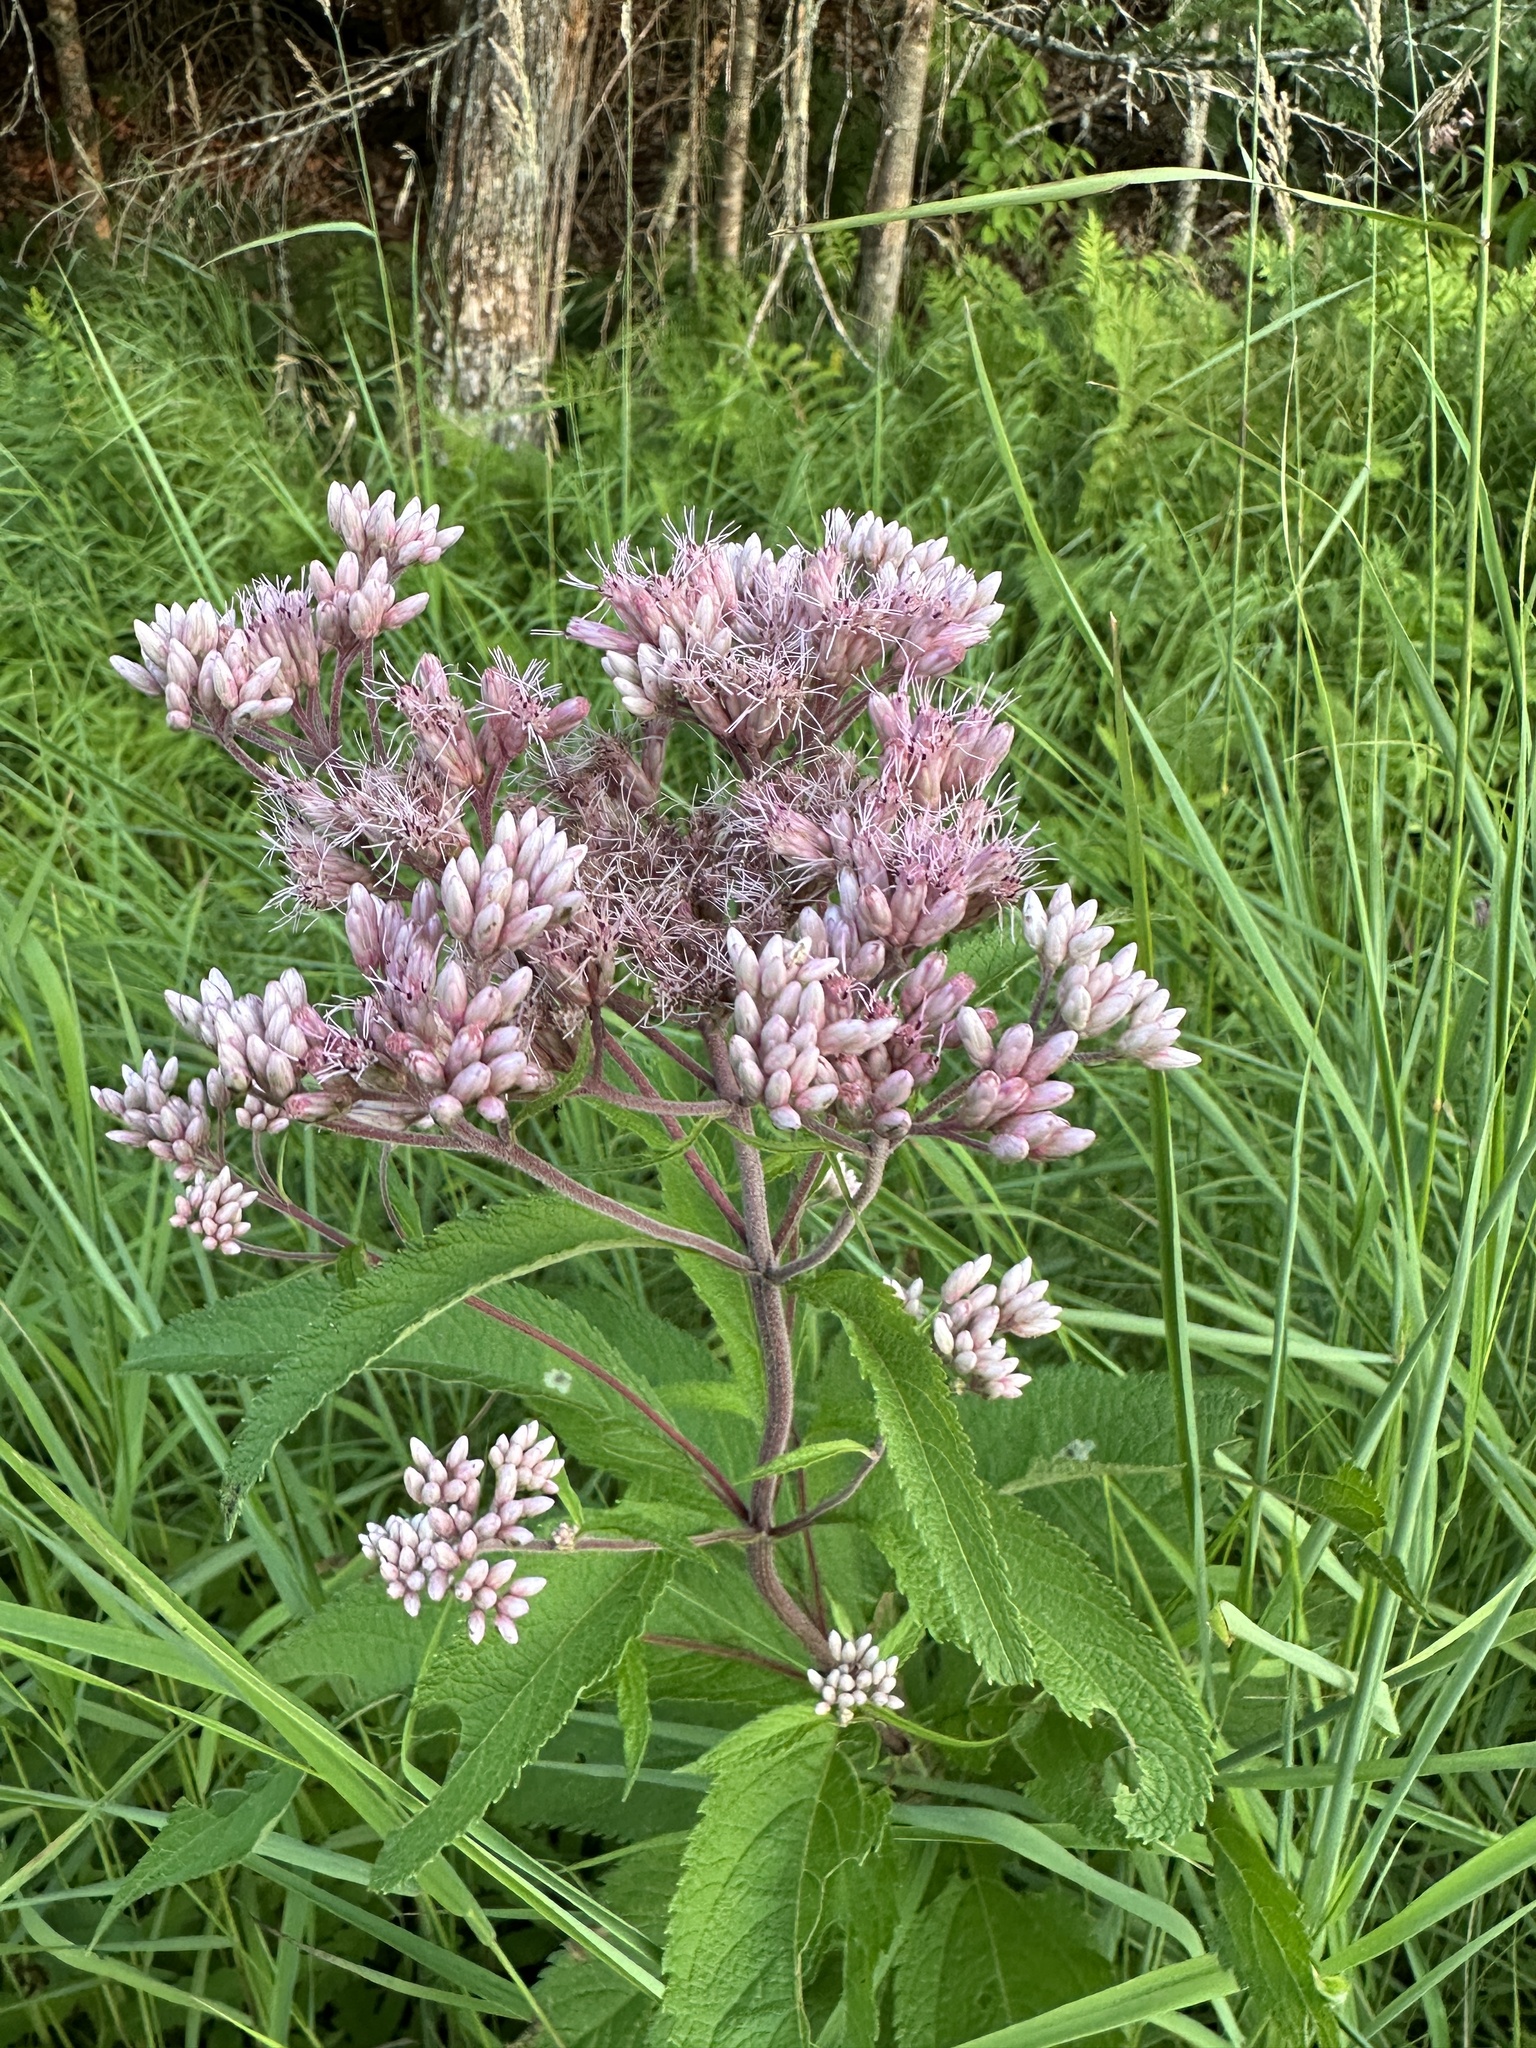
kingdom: Plantae
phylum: Tracheophyta
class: Magnoliopsida
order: Asterales
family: Asteraceae
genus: Eutrochium
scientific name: Eutrochium maculatum
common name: Spotted joe pye weed
